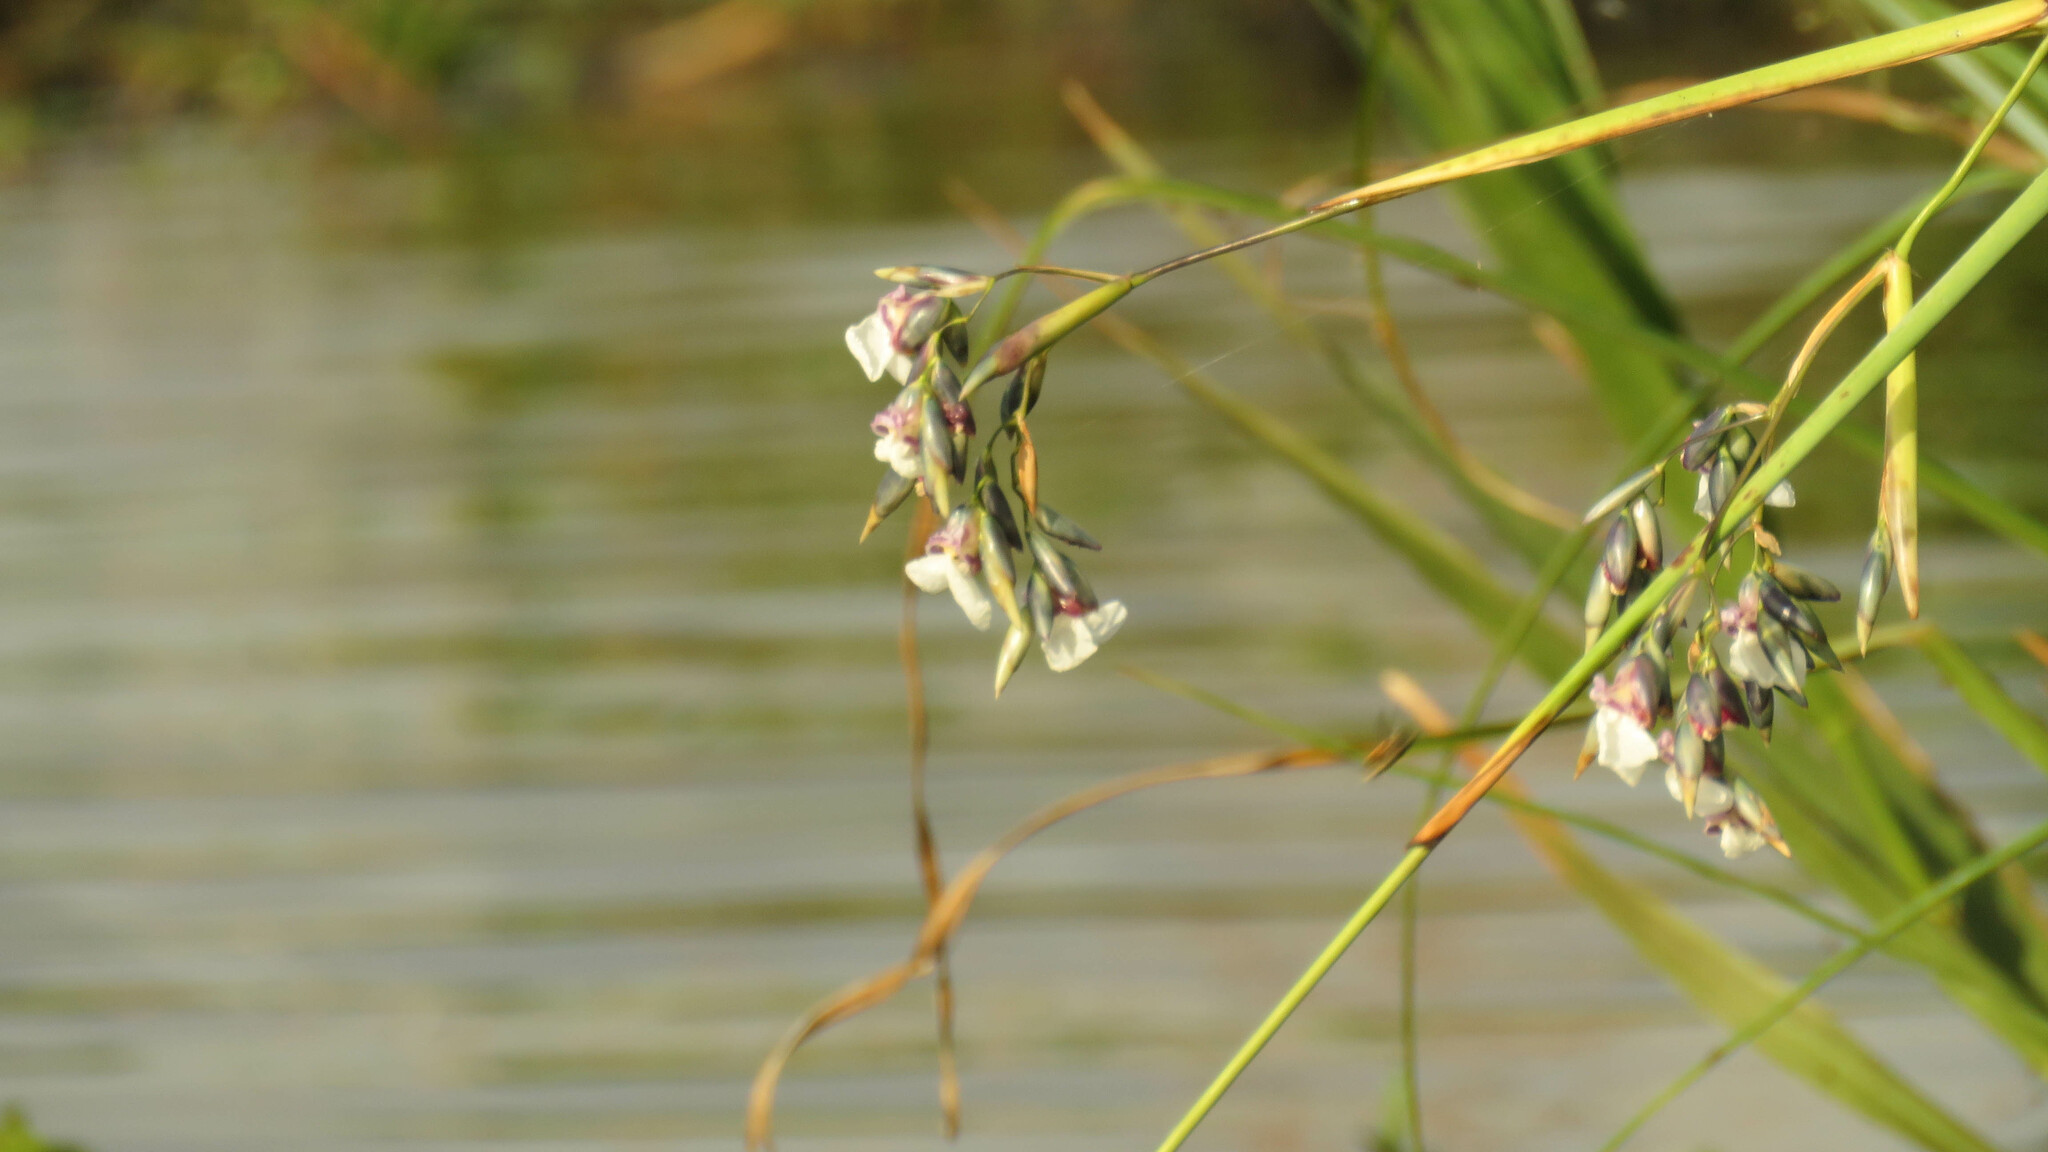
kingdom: Plantae
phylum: Tracheophyta
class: Liliopsida
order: Zingiberales
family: Marantaceae
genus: Thalia
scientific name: Thalia geniculata
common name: Arrowroot
